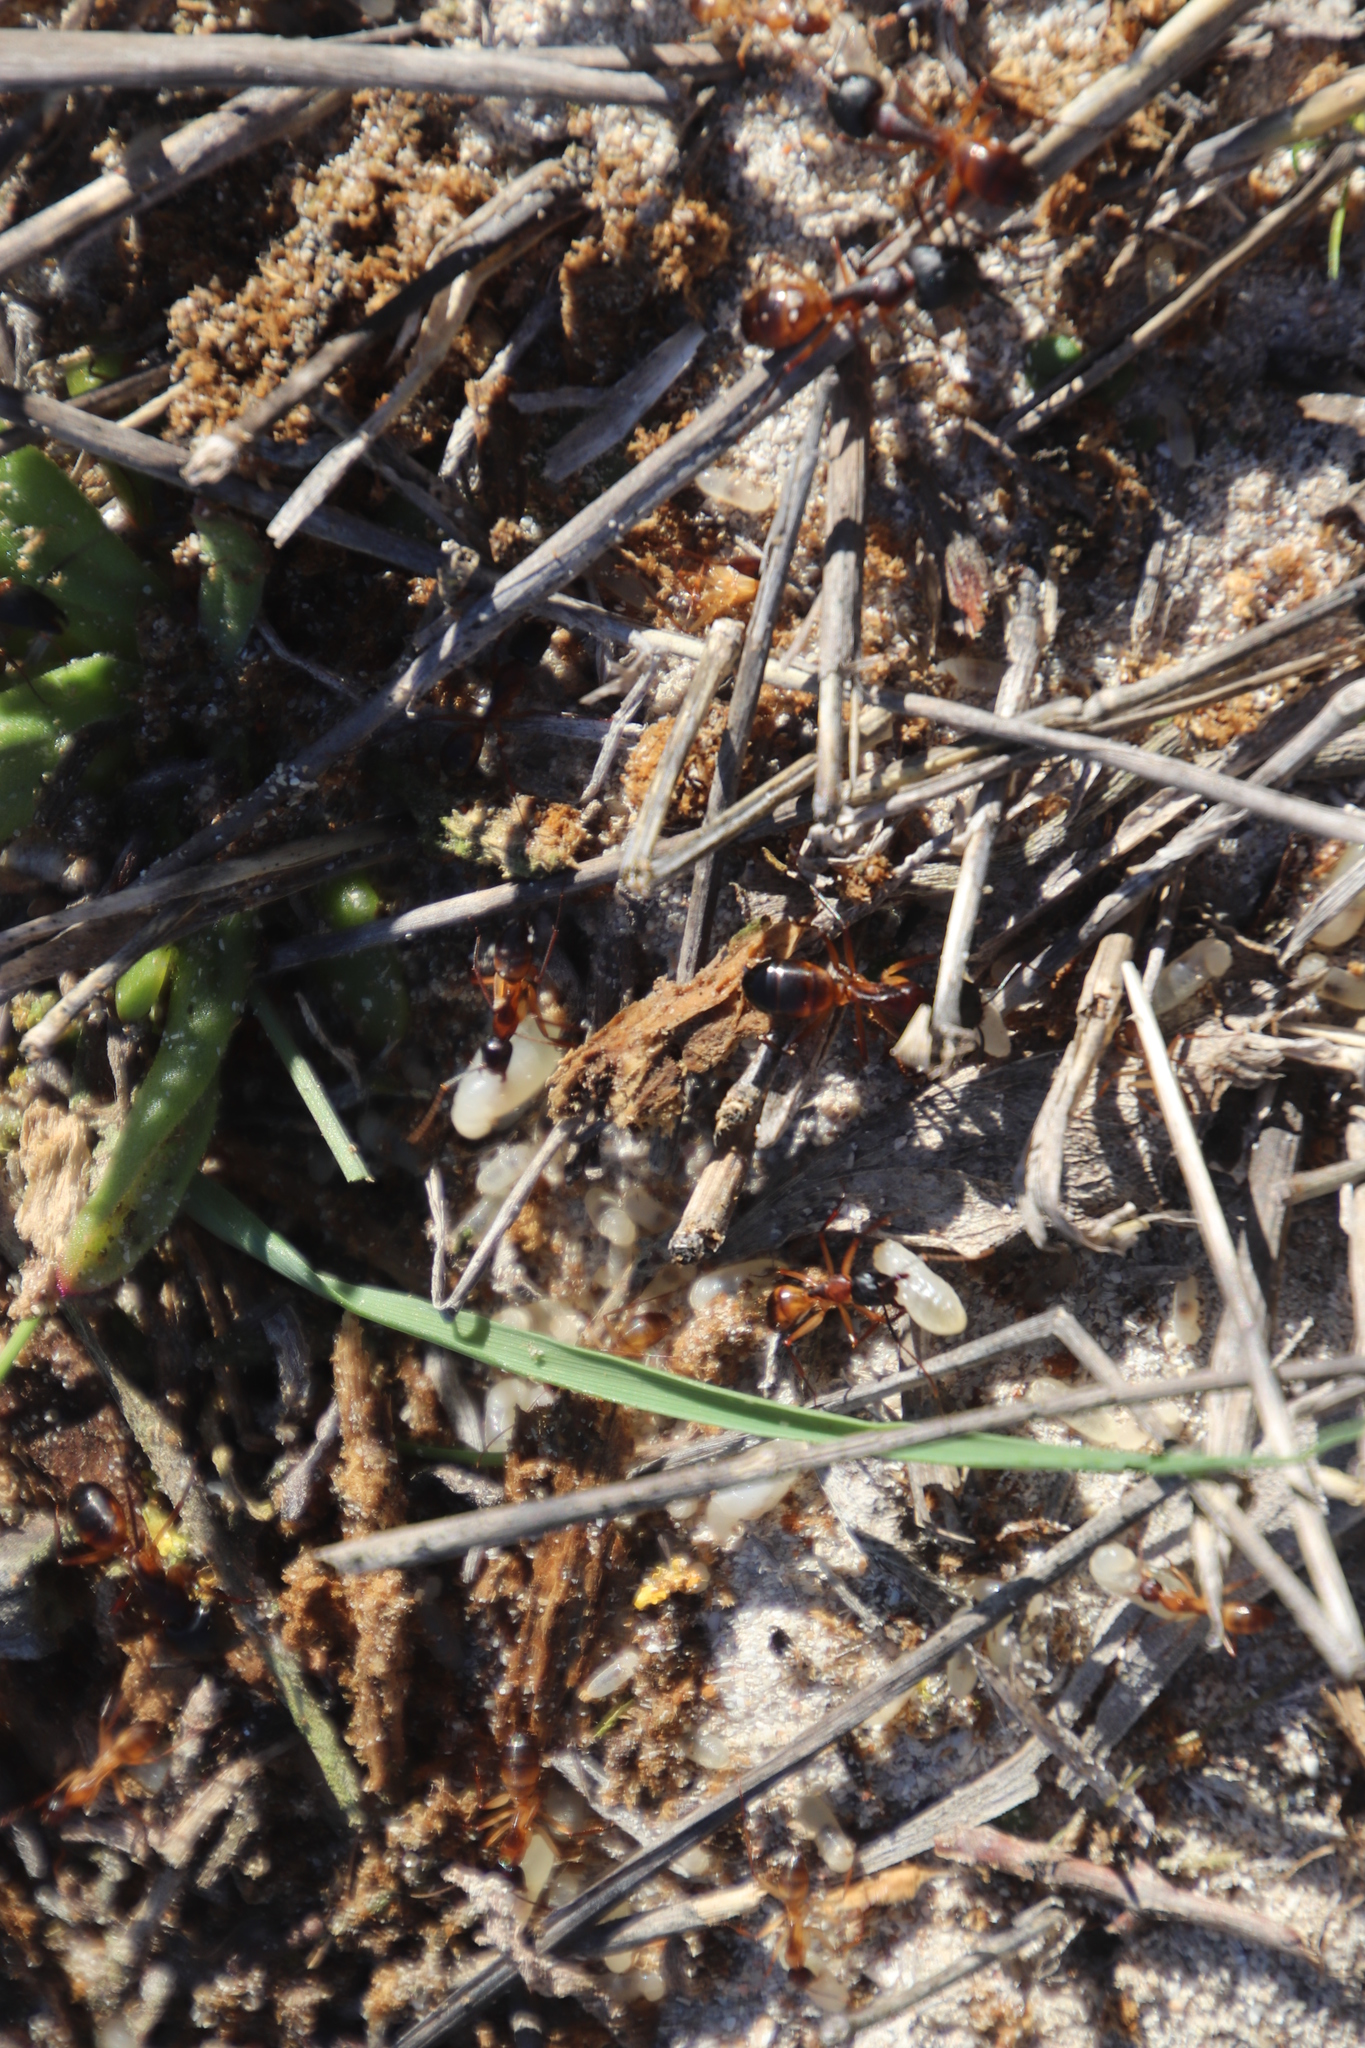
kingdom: Animalia
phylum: Arthropoda
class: Insecta
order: Hymenoptera
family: Formicidae
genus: Camponotus
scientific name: Camponotus maculatus
